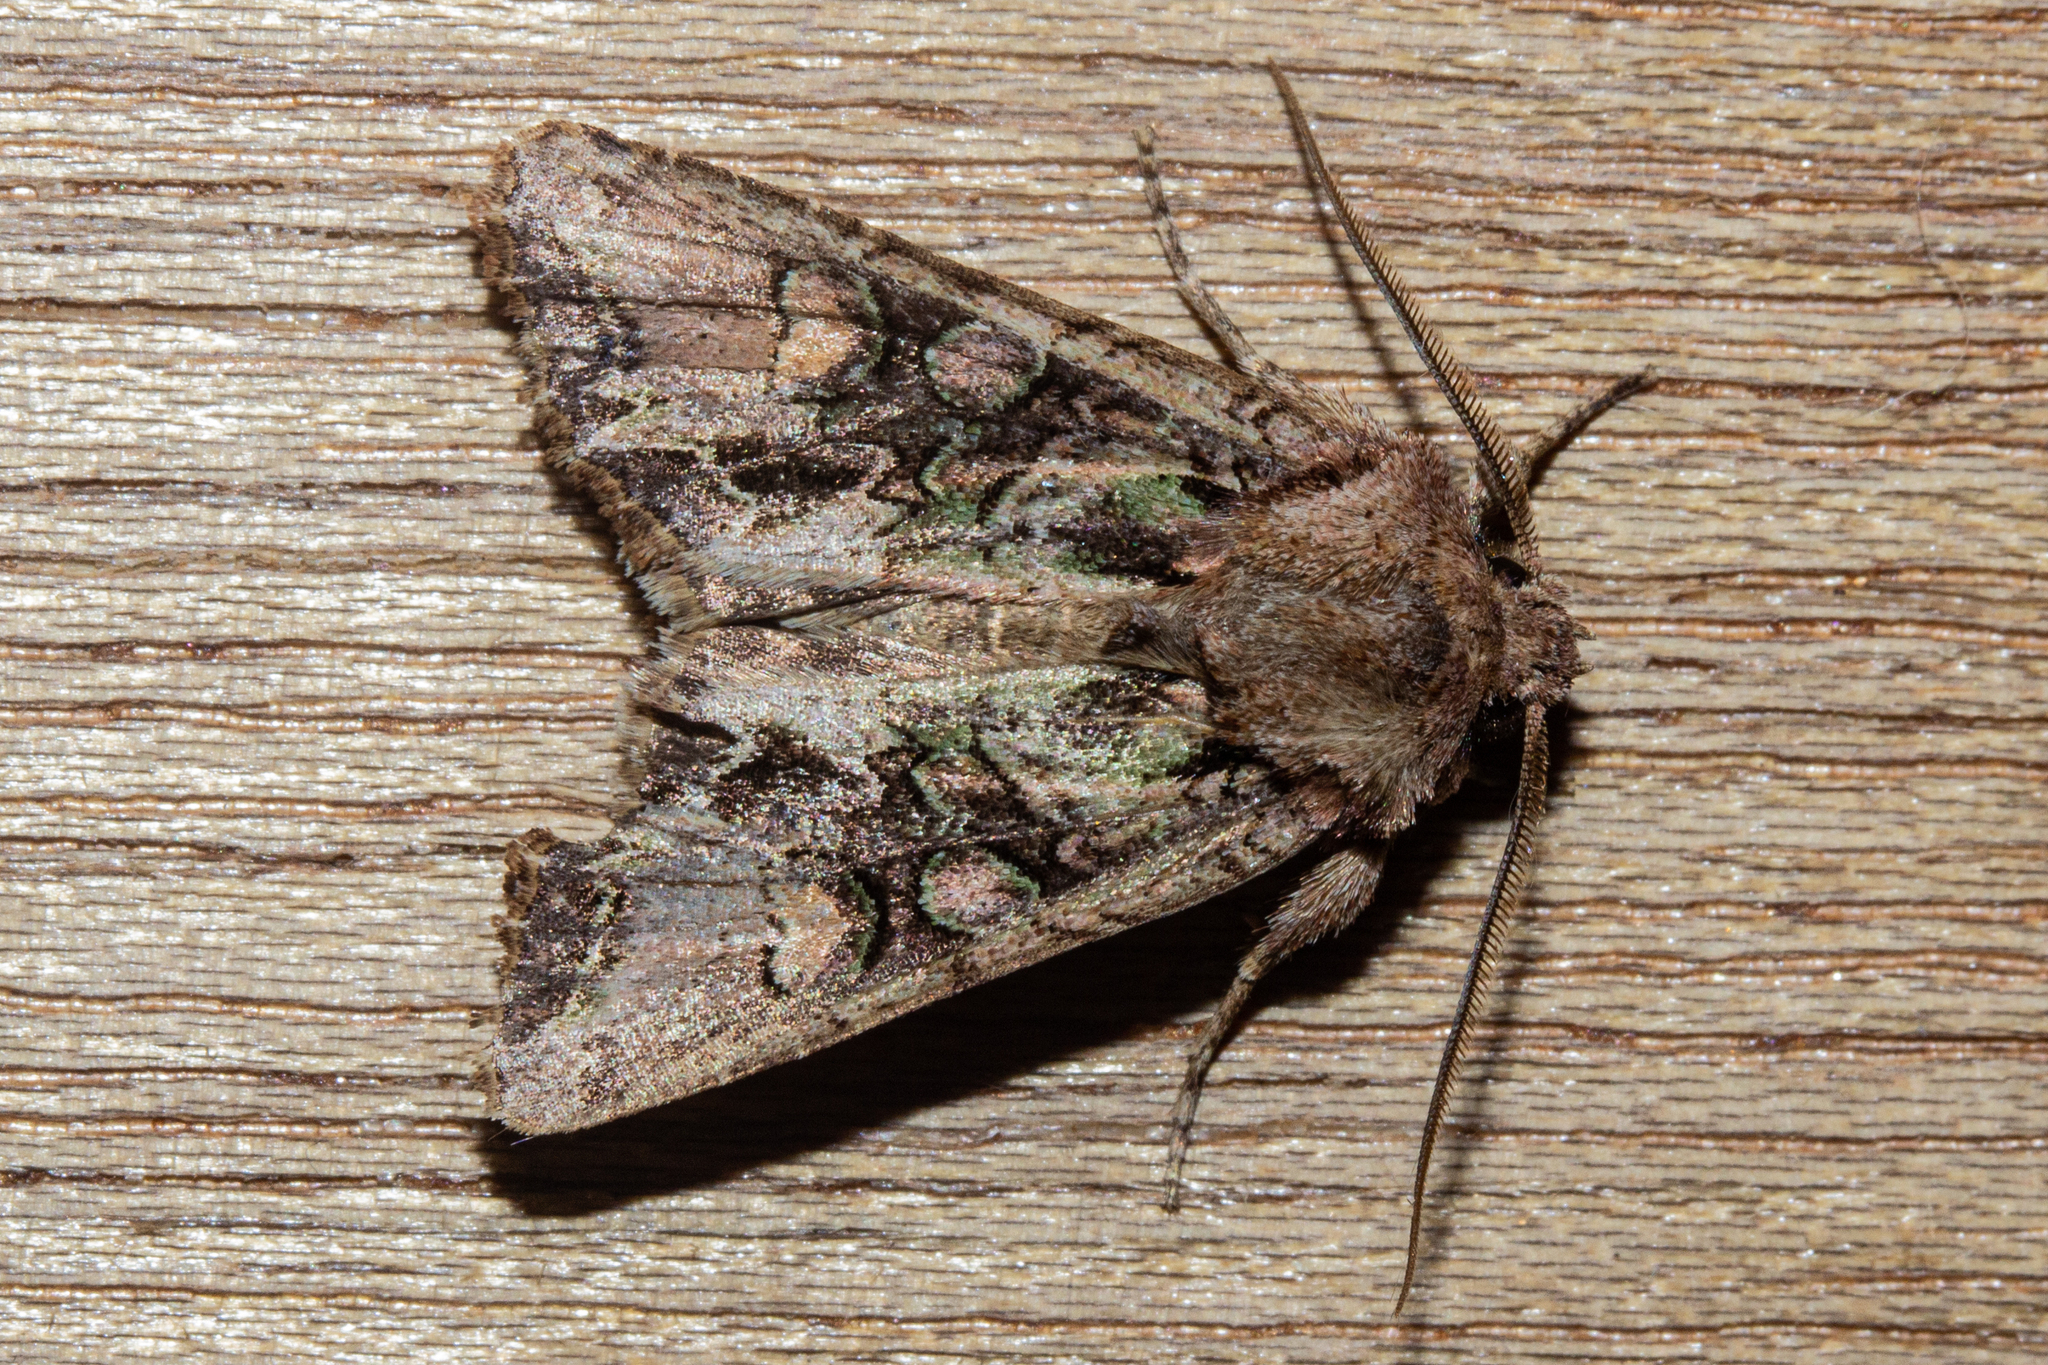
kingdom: Animalia
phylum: Arthropoda
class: Insecta
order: Lepidoptera
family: Noctuidae
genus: Ichneutica
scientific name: Ichneutica skelloni
